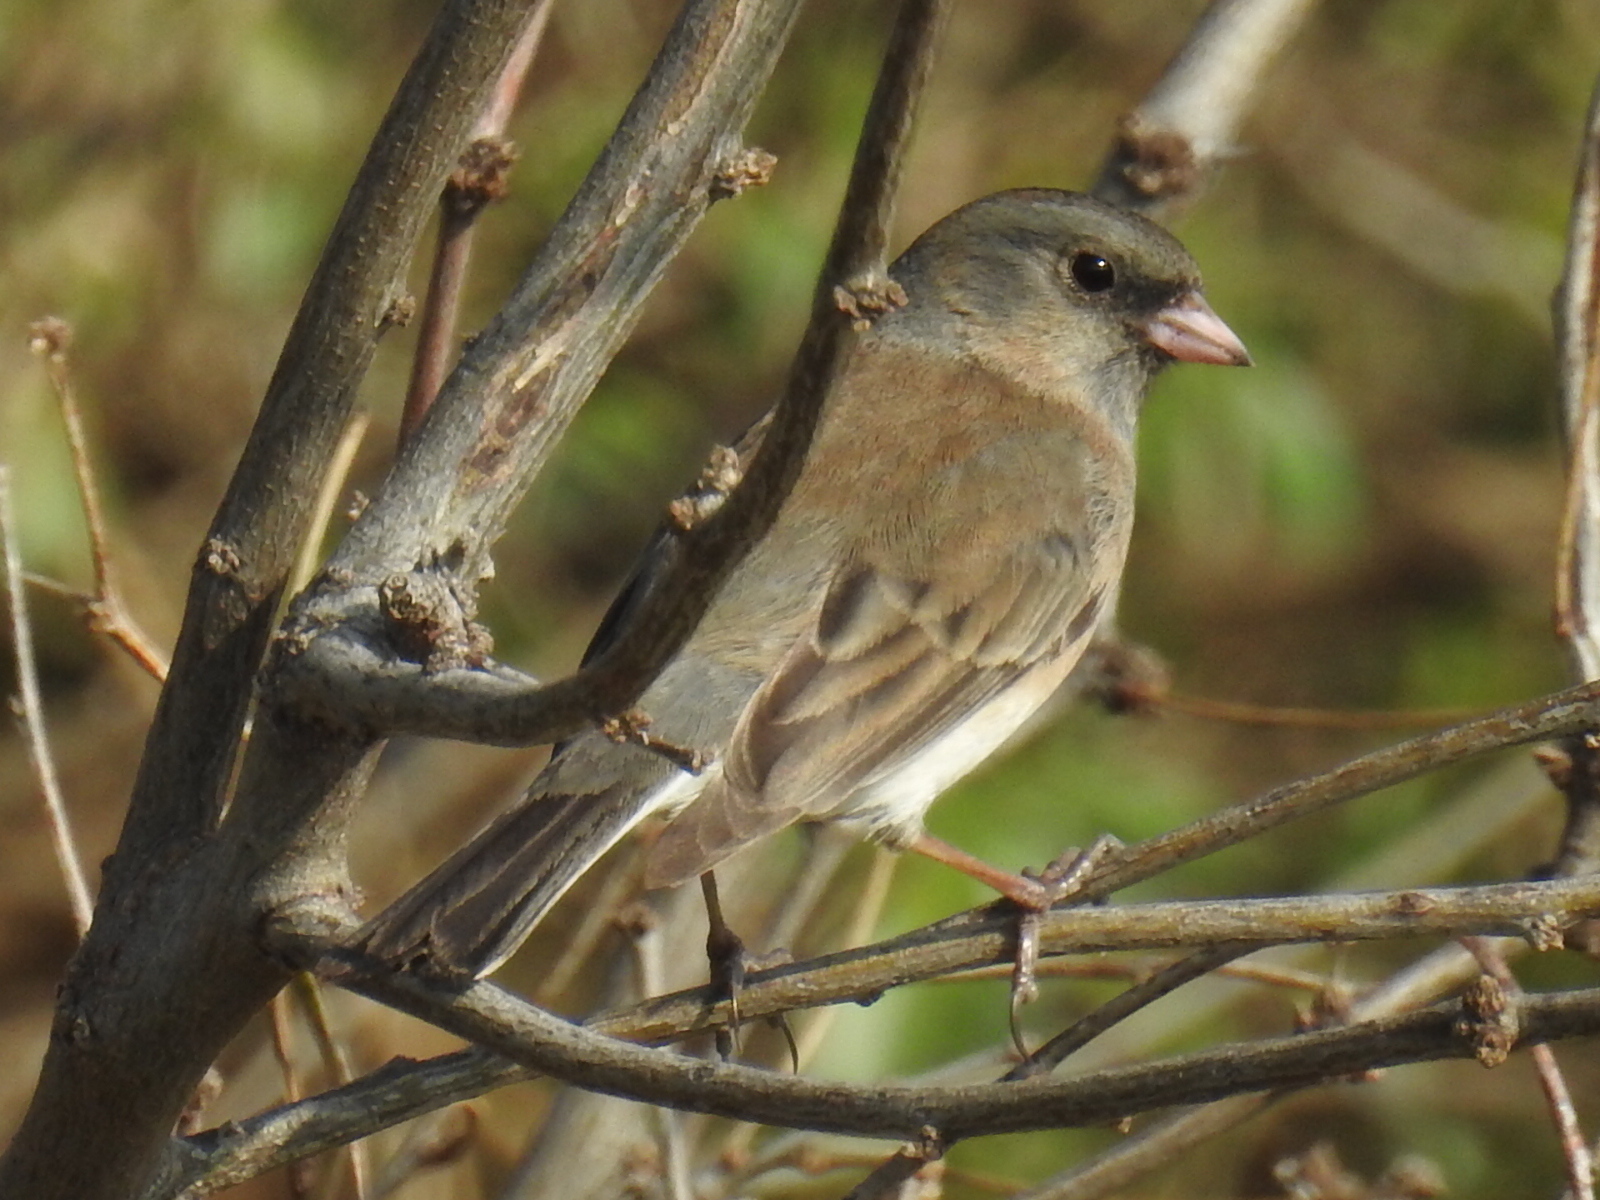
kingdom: Animalia
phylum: Chordata
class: Aves
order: Passeriformes
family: Passerellidae
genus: Junco
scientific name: Junco hyemalis
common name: Dark-eyed junco
